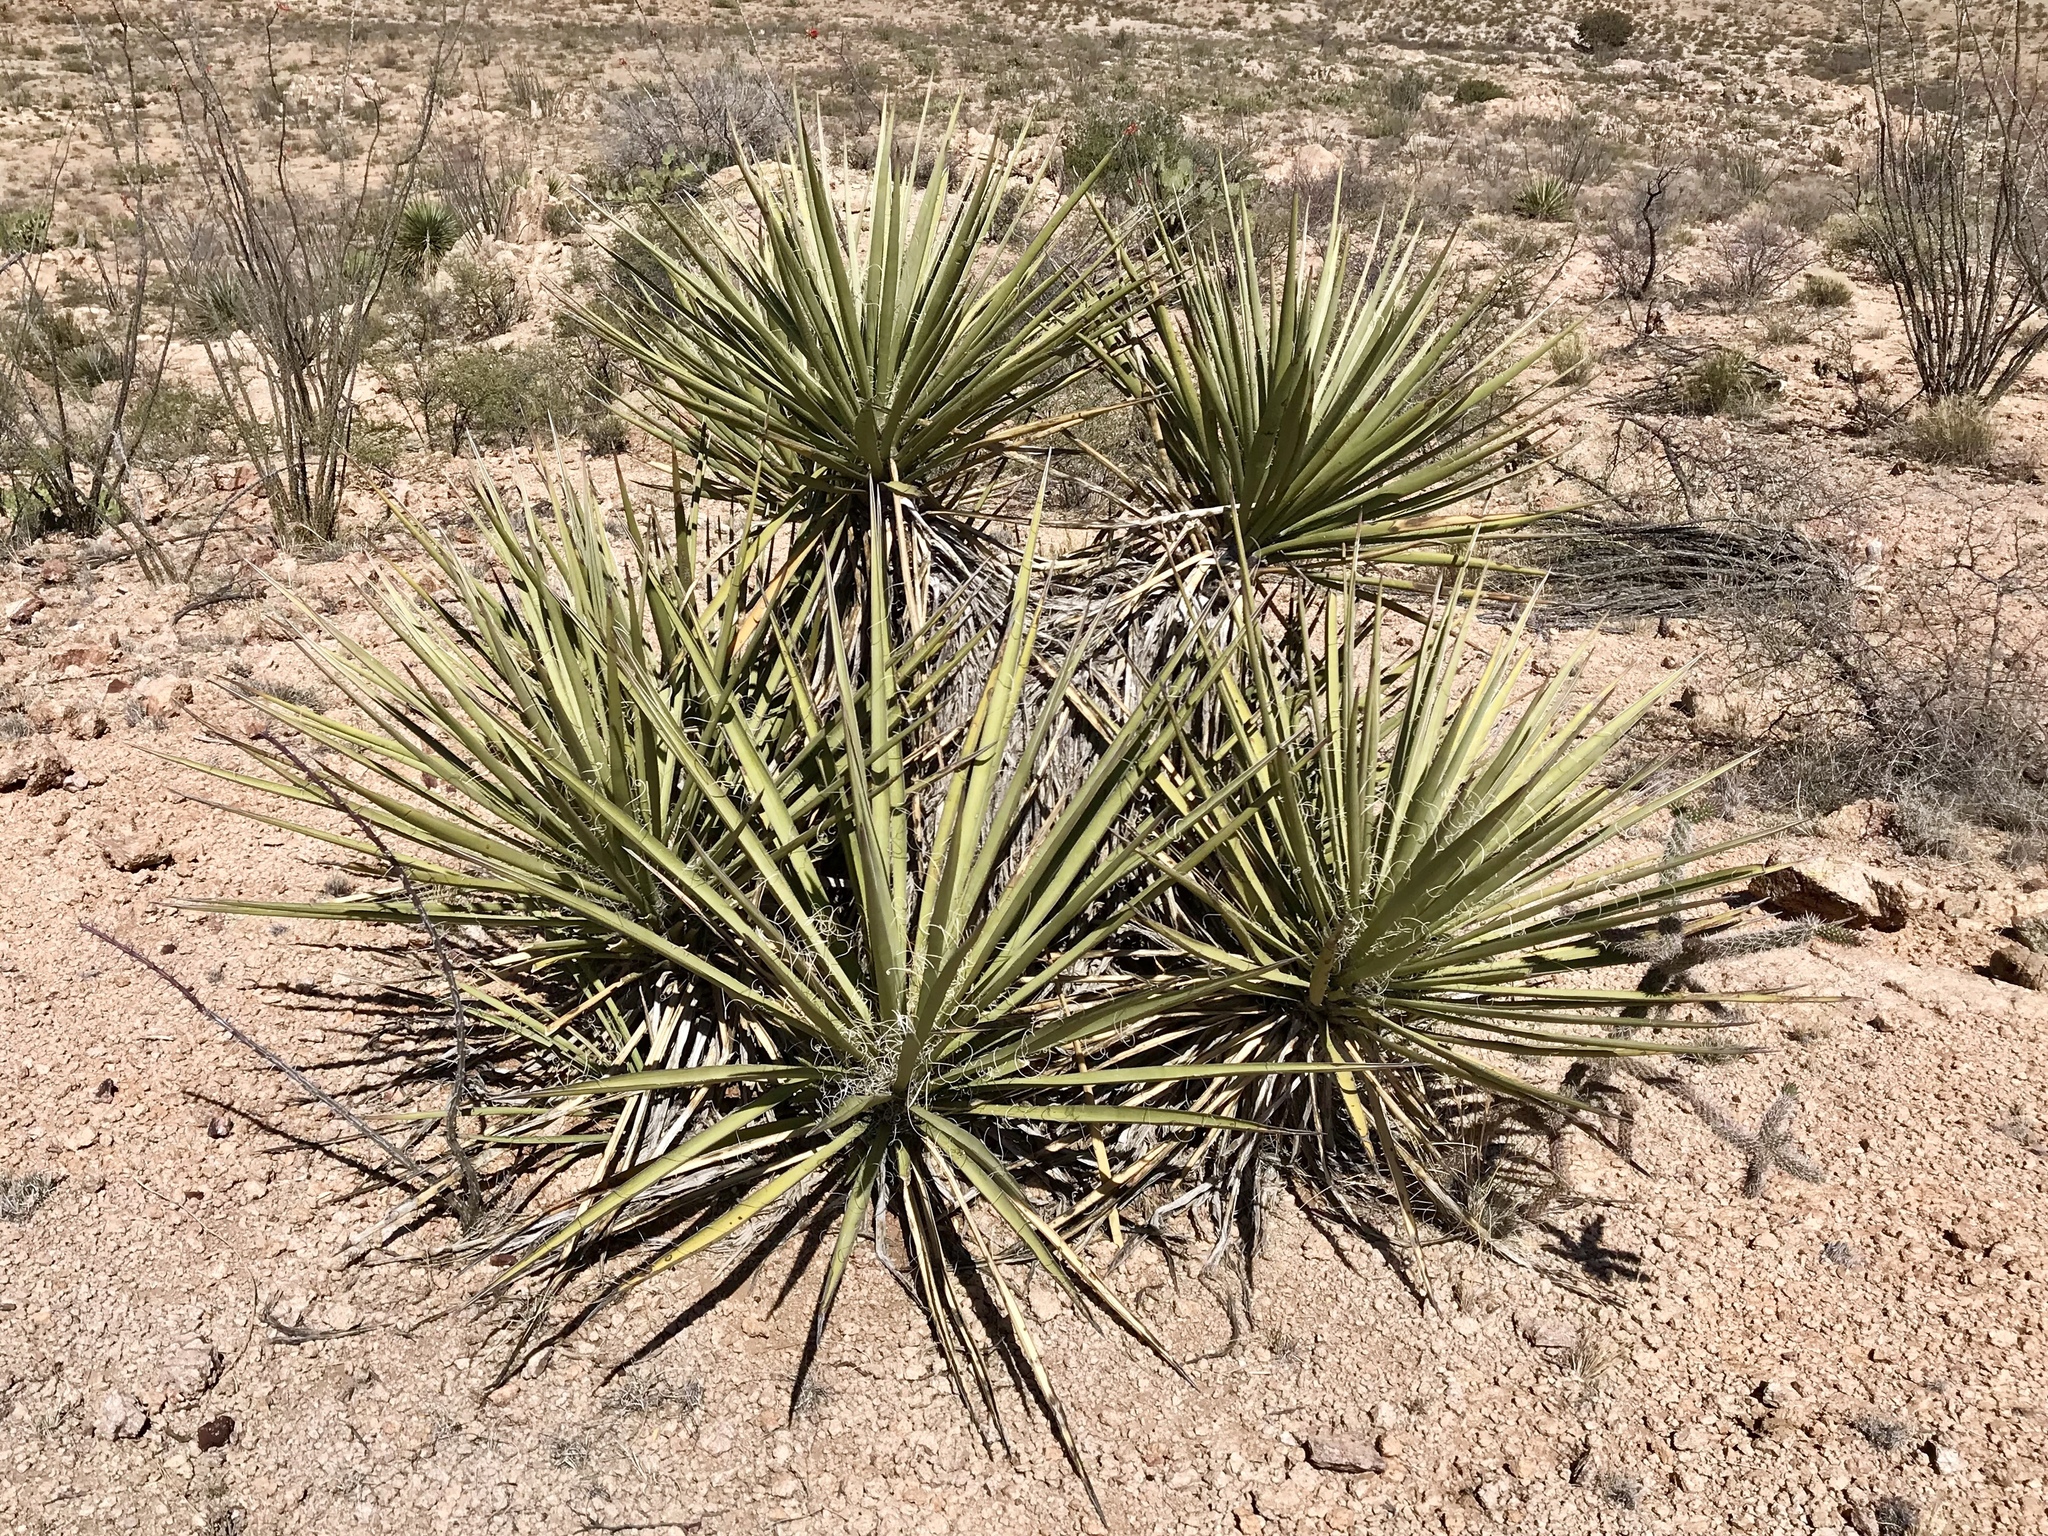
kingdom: Plantae
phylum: Tracheophyta
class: Liliopsida
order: Asparagales
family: Asparagaceae
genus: Yucca
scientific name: Yucca baccata
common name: Banana yucca
